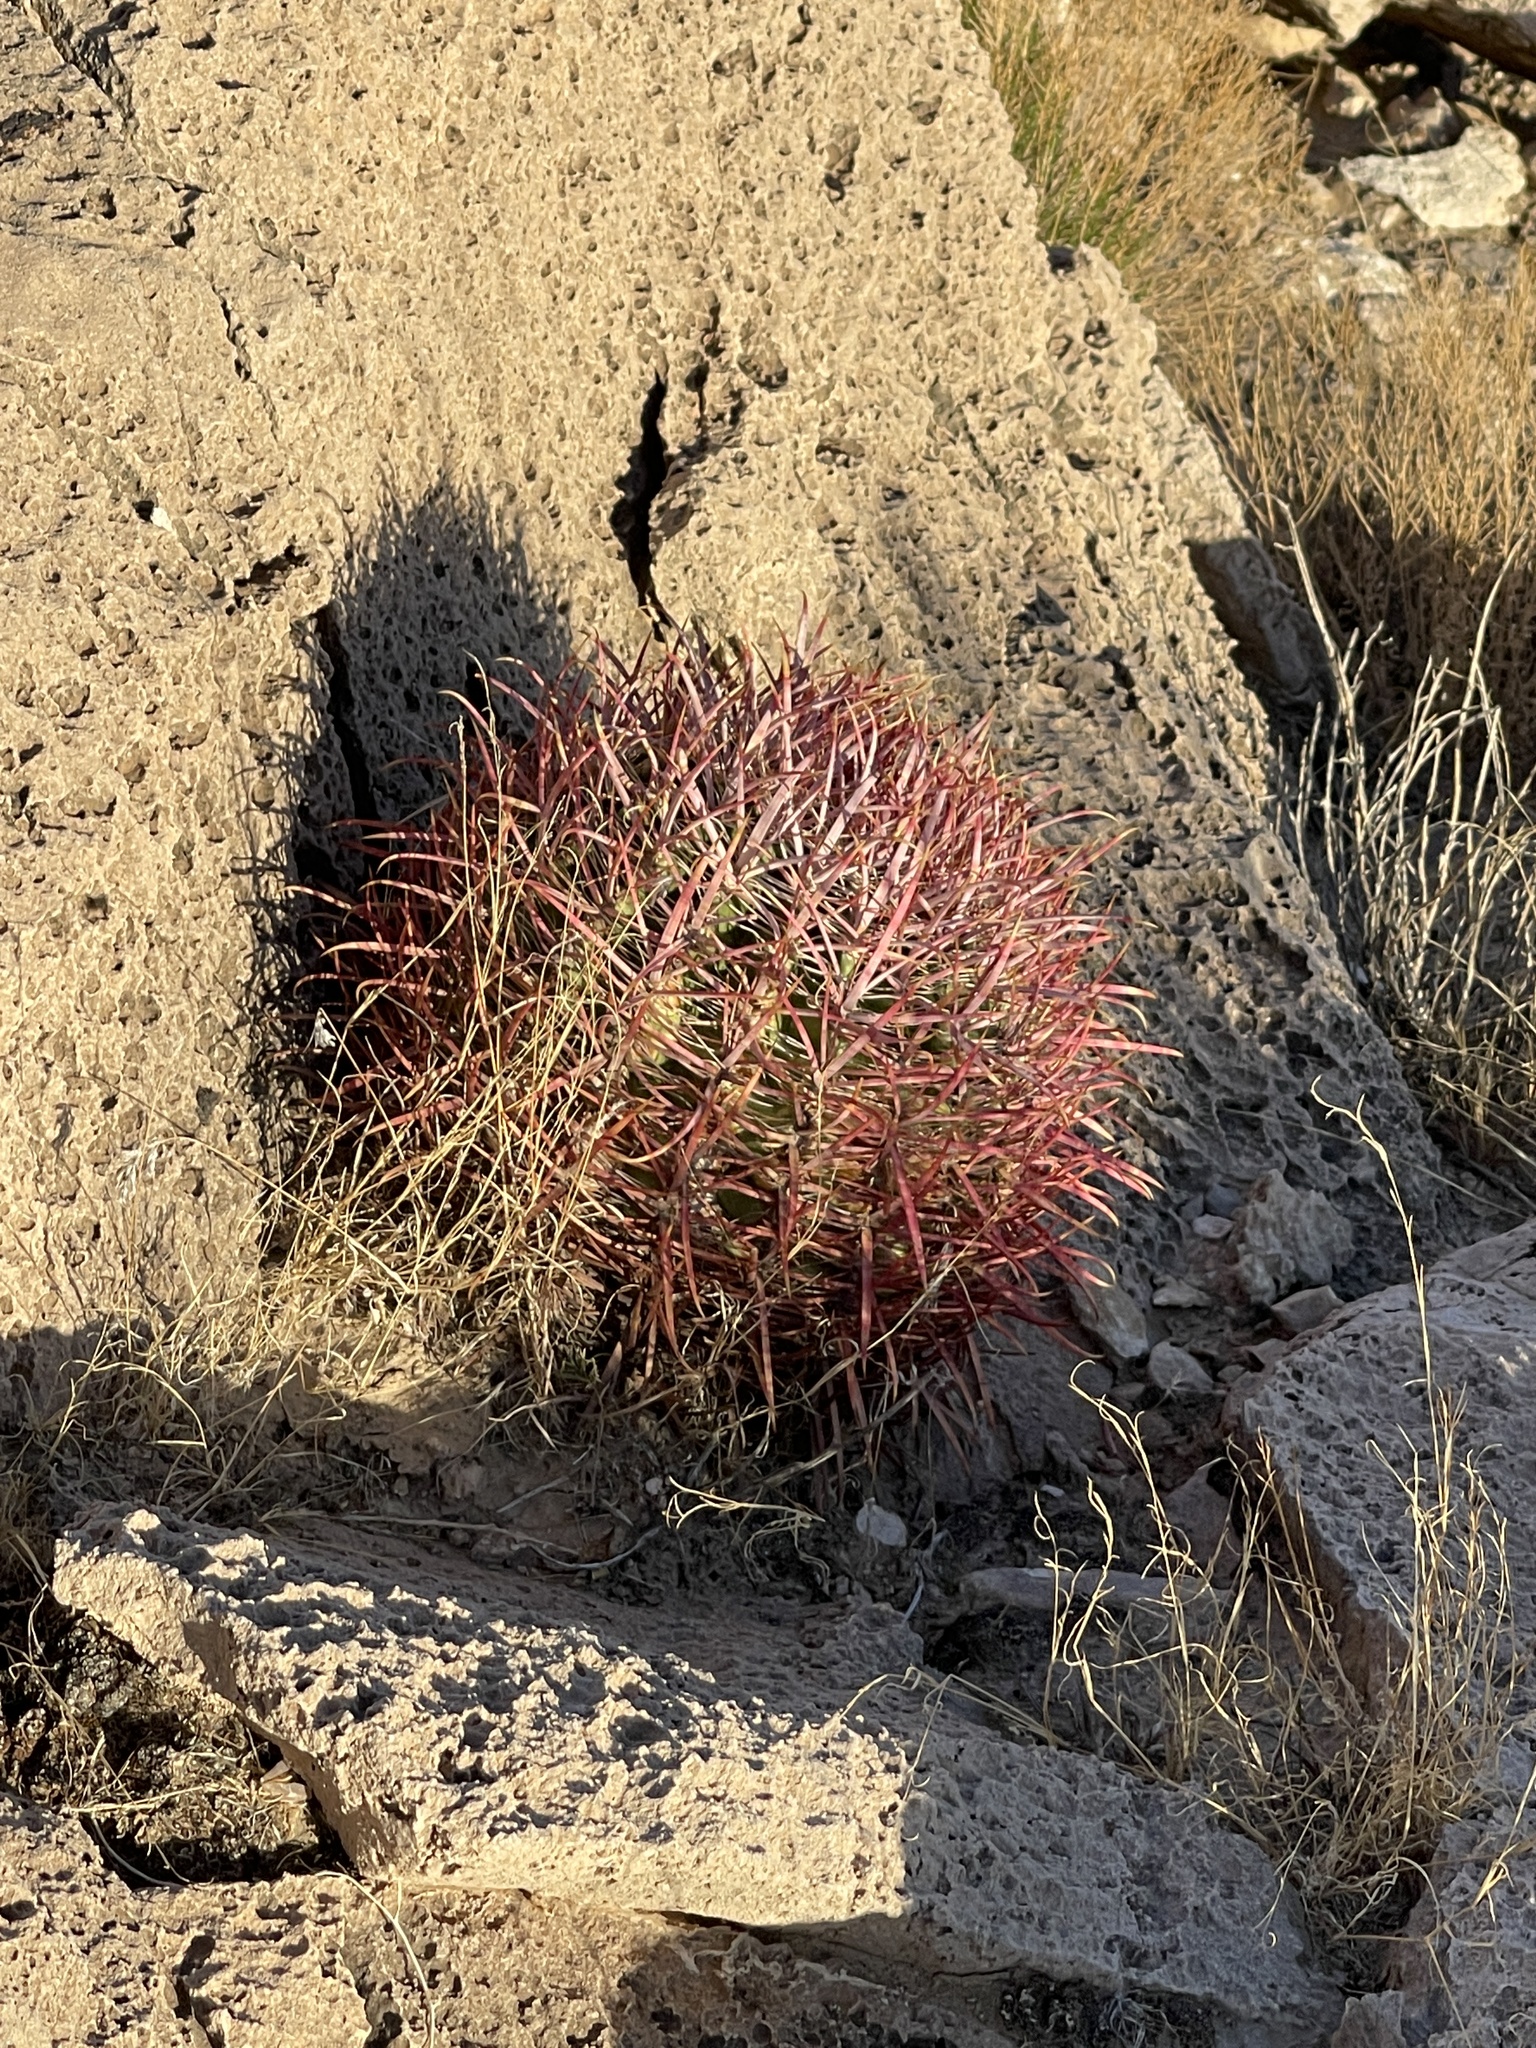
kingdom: Plantae
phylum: Tracheophyta
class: Magnoliopsida
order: Caryophyllales
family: Cactaceae
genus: Ferocactus
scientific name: Ferocactus cylindraceus
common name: California barrel cactus
